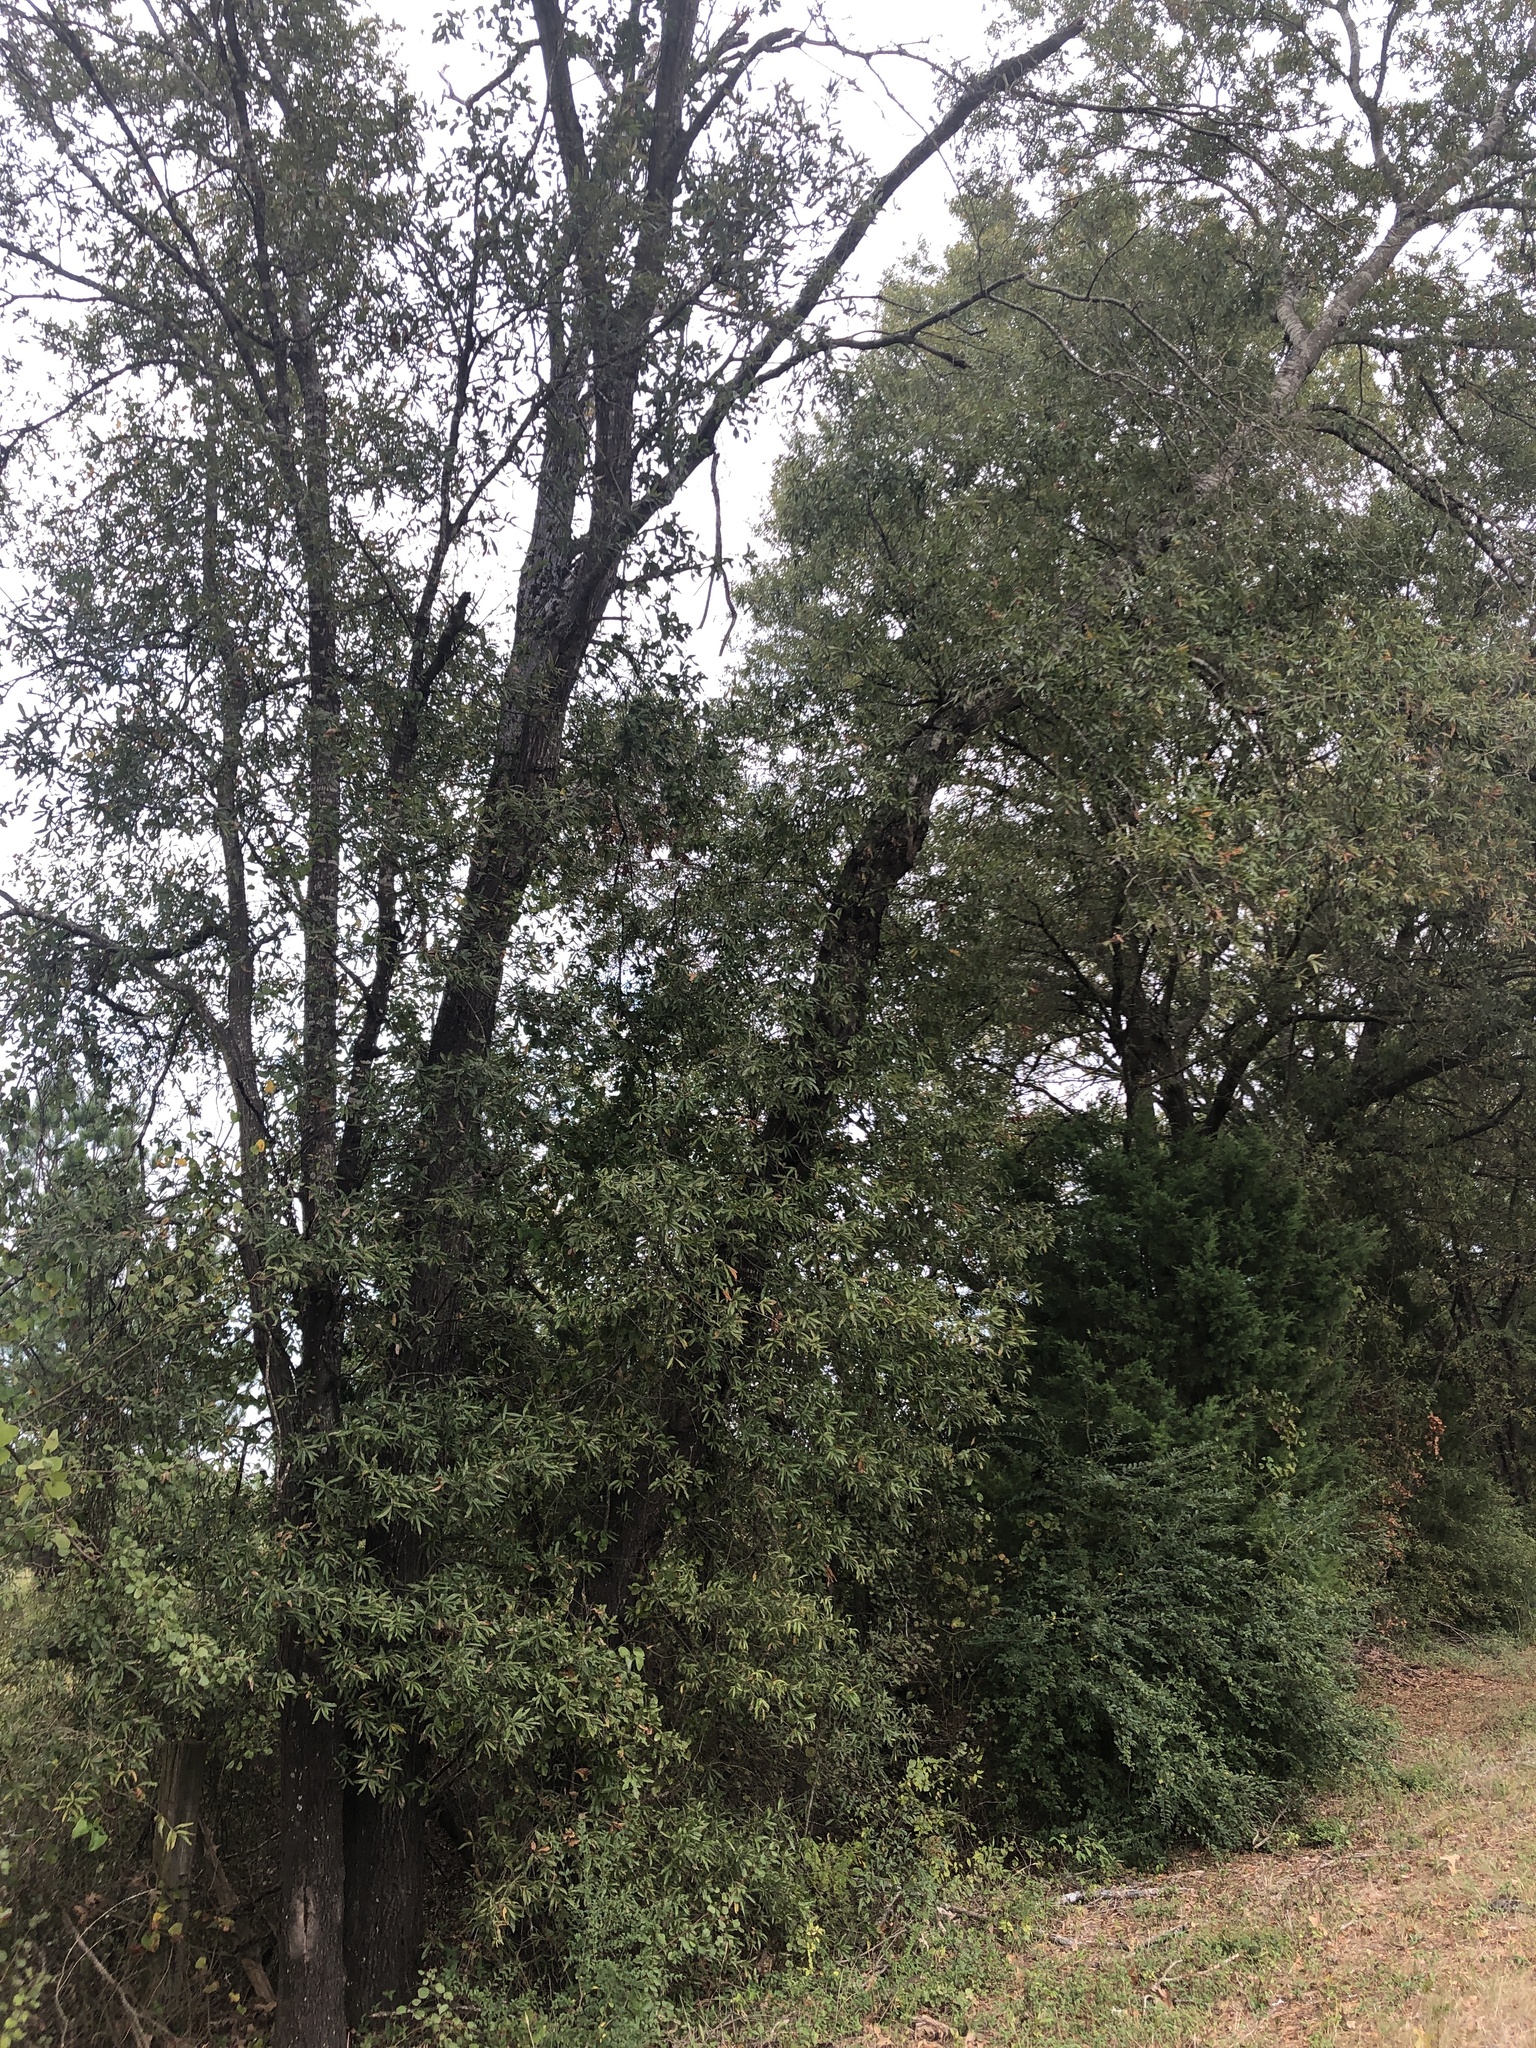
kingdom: Plantae
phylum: Tracheophyta
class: Magnoliopsida
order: Fagales
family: Fagaceae
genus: Quercus
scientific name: Quercus phellos
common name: Willow oak
